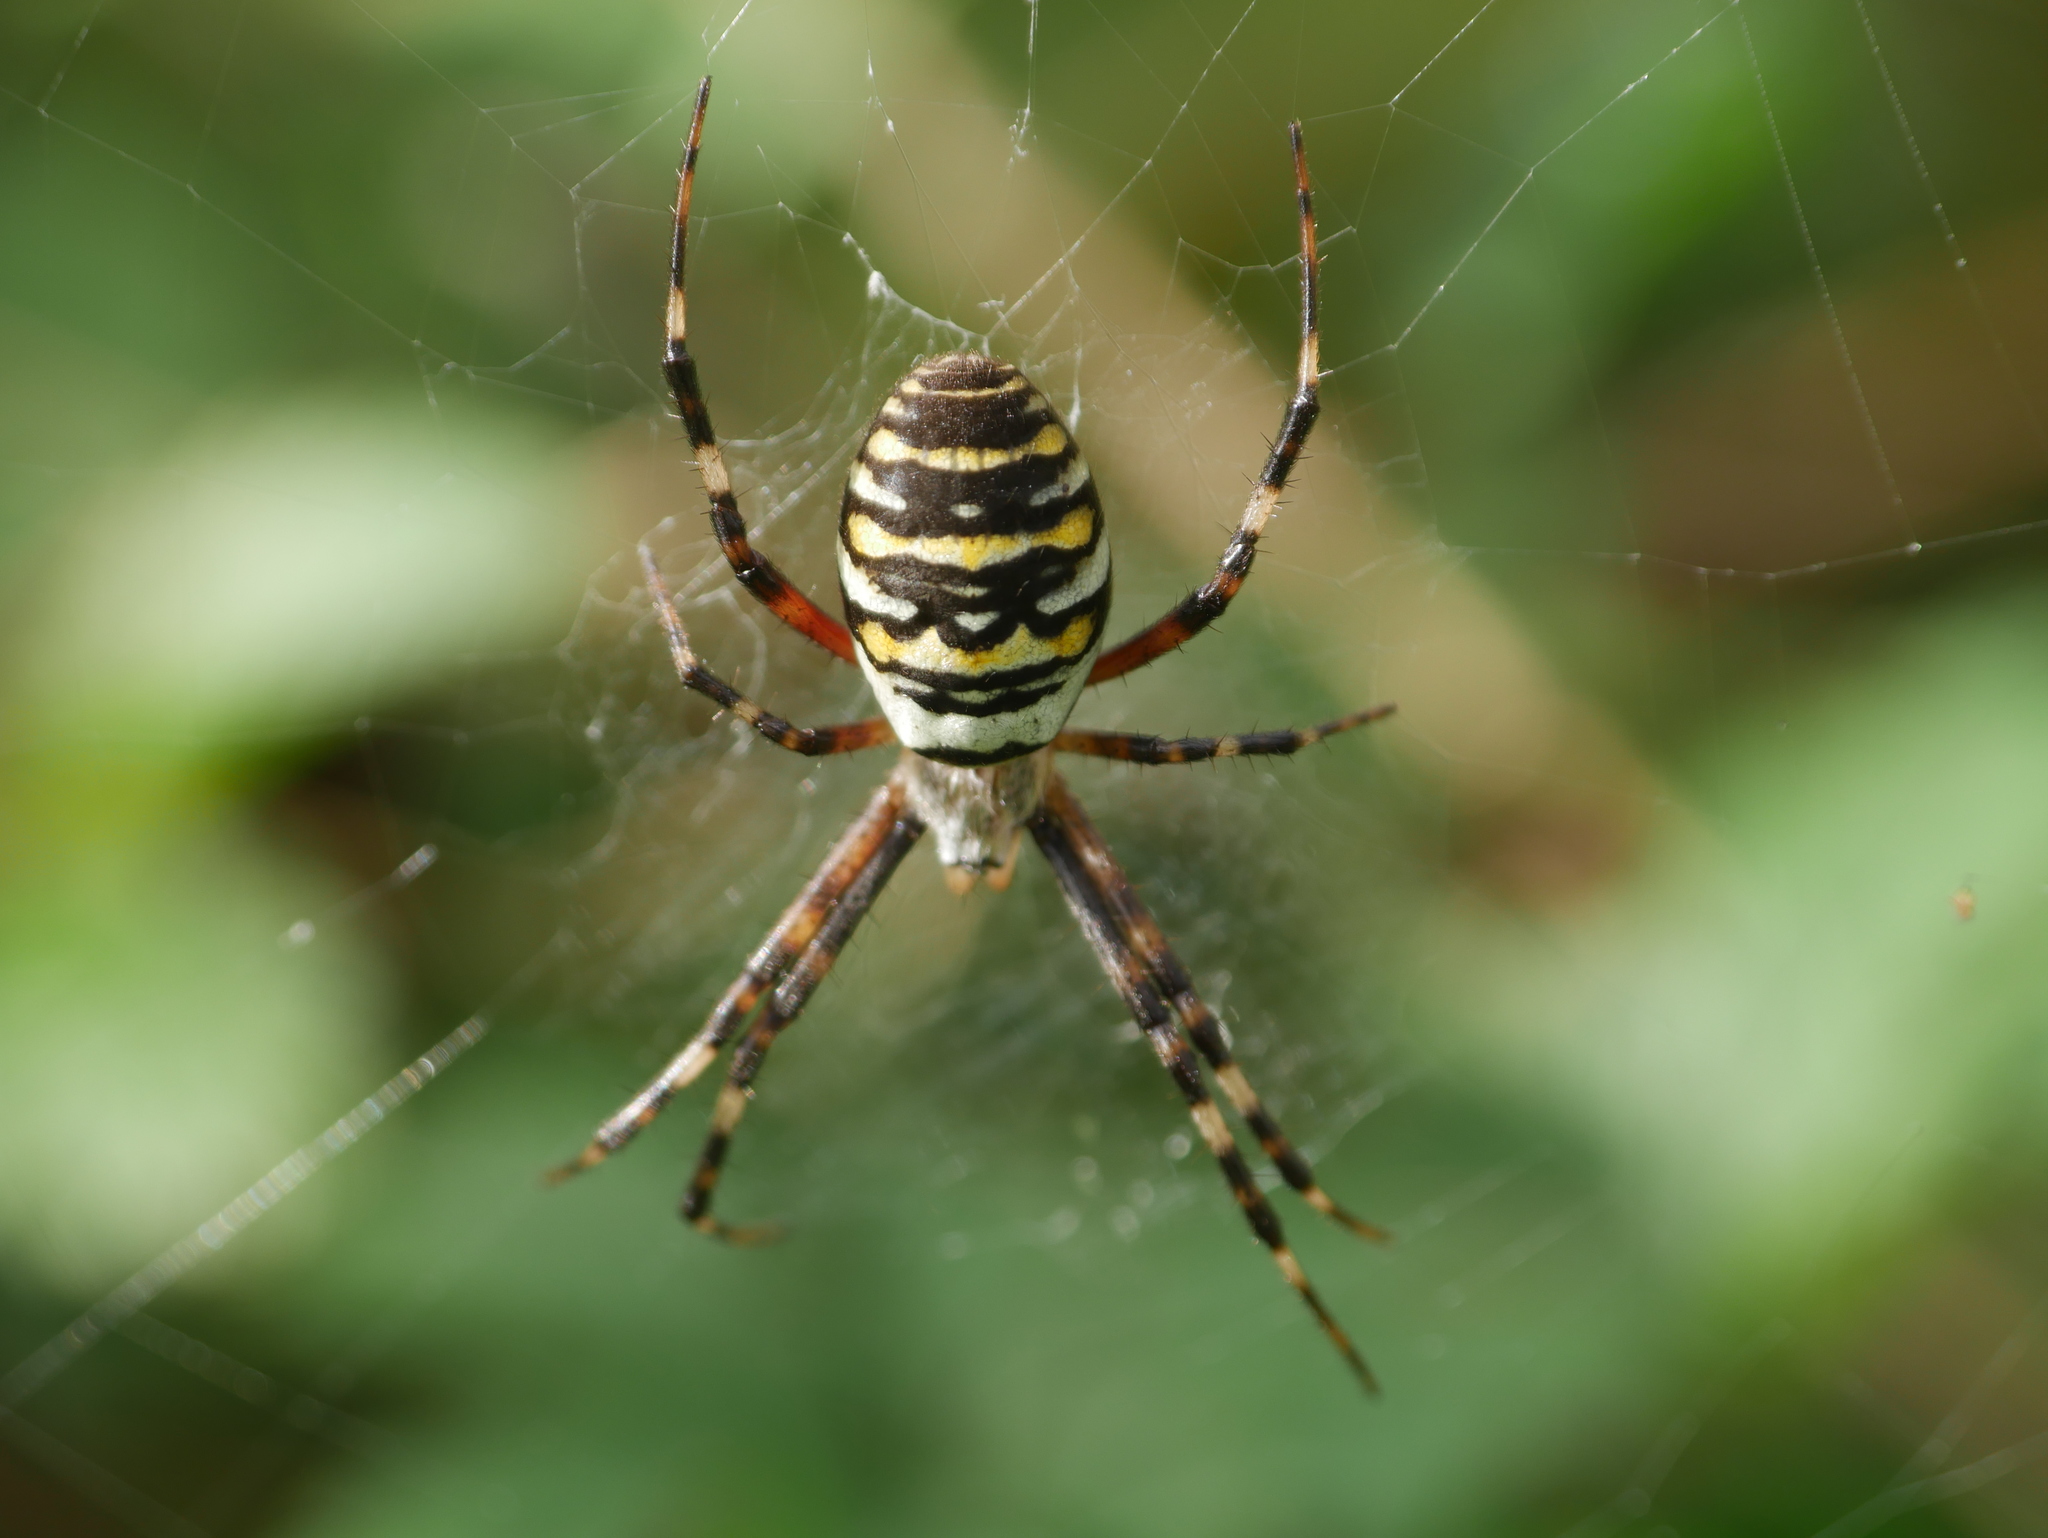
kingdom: Animalia
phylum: Arthropoda
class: Arachnida
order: Araneae
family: Araneidae
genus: Argiope
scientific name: Argiope bruennichi
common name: Wasp spider
